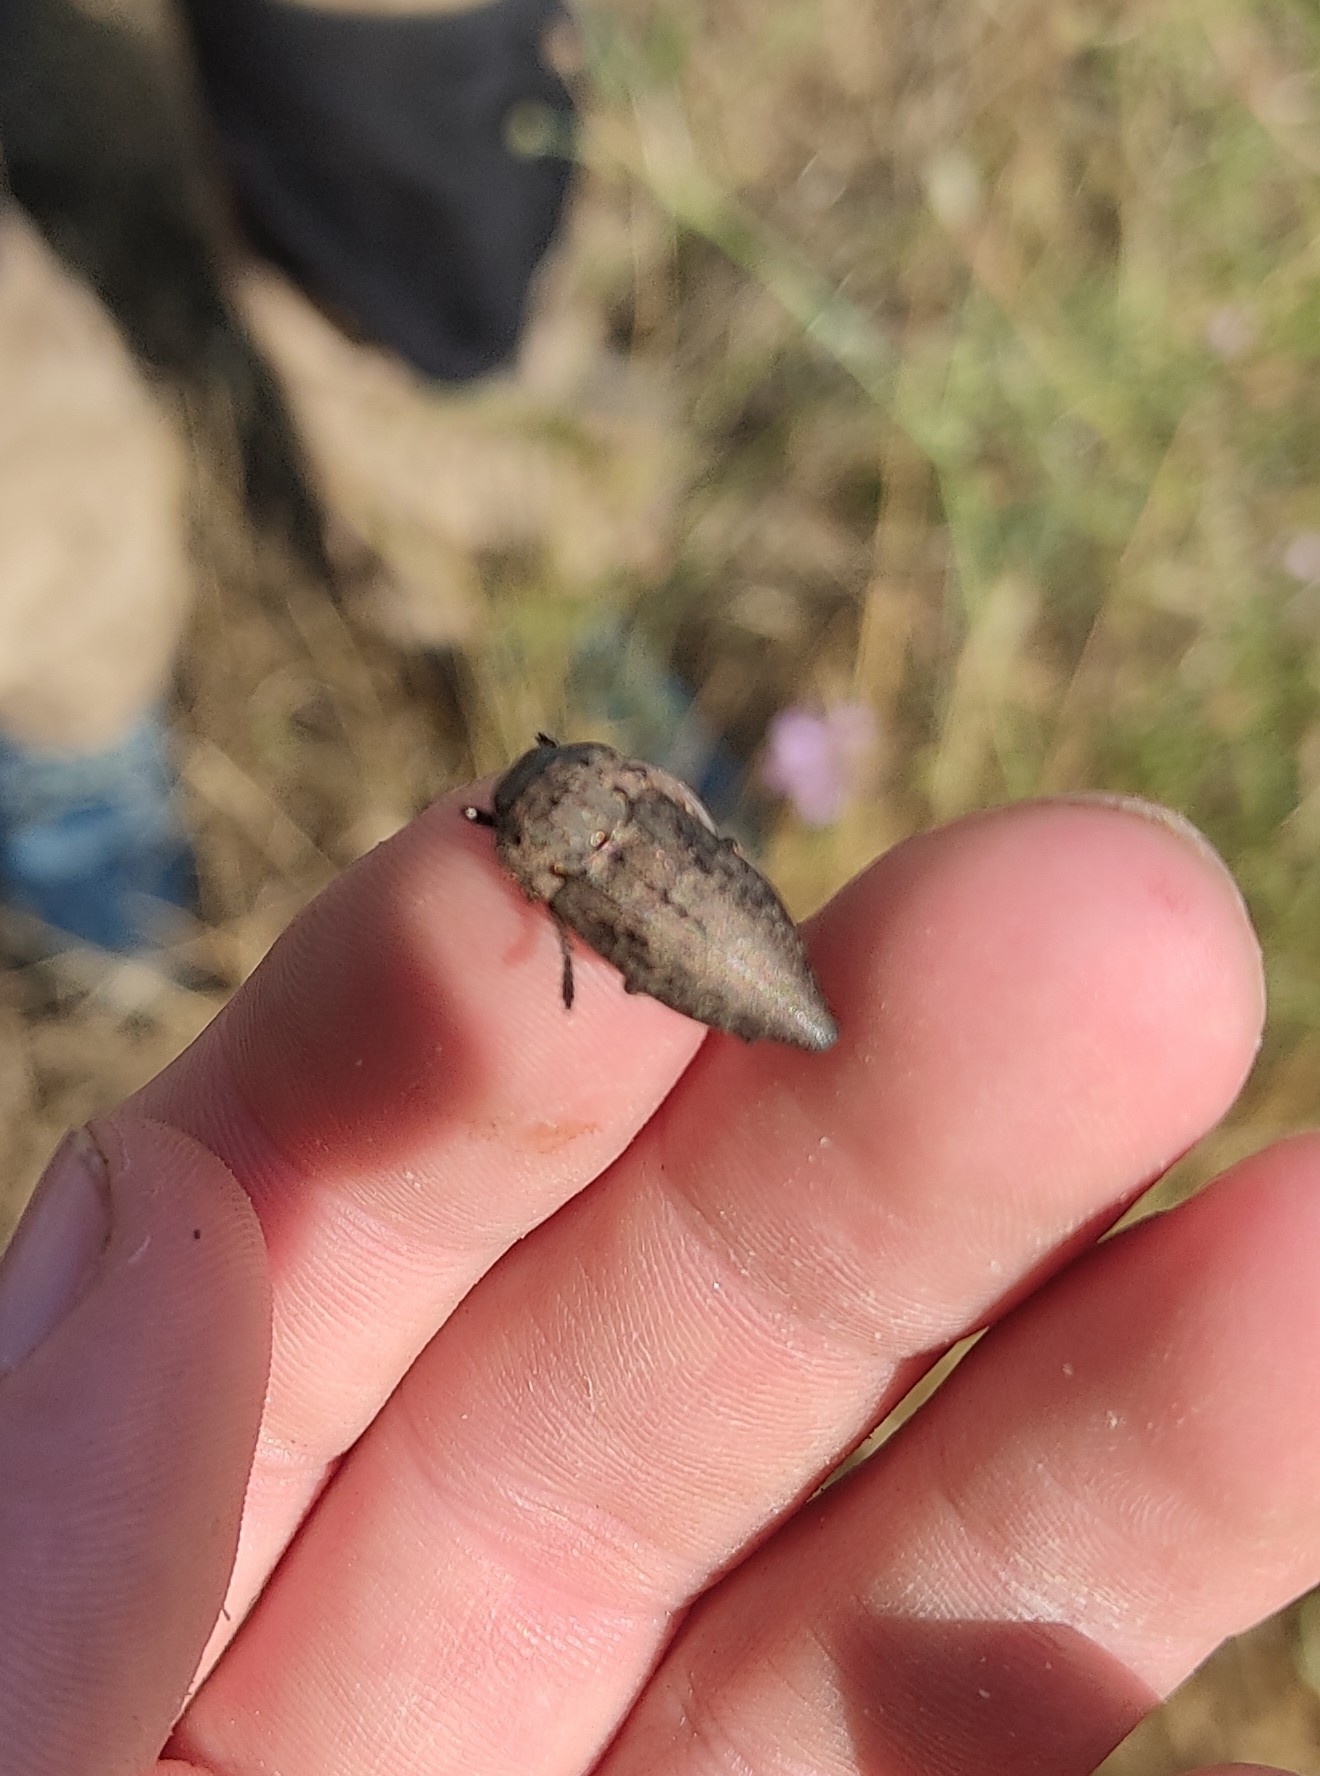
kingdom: Animalia
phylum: Arthropoda
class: Insecta
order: Coleoptera
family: Buprestidae
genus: Capnodis
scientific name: Capnodis tenebricosa
